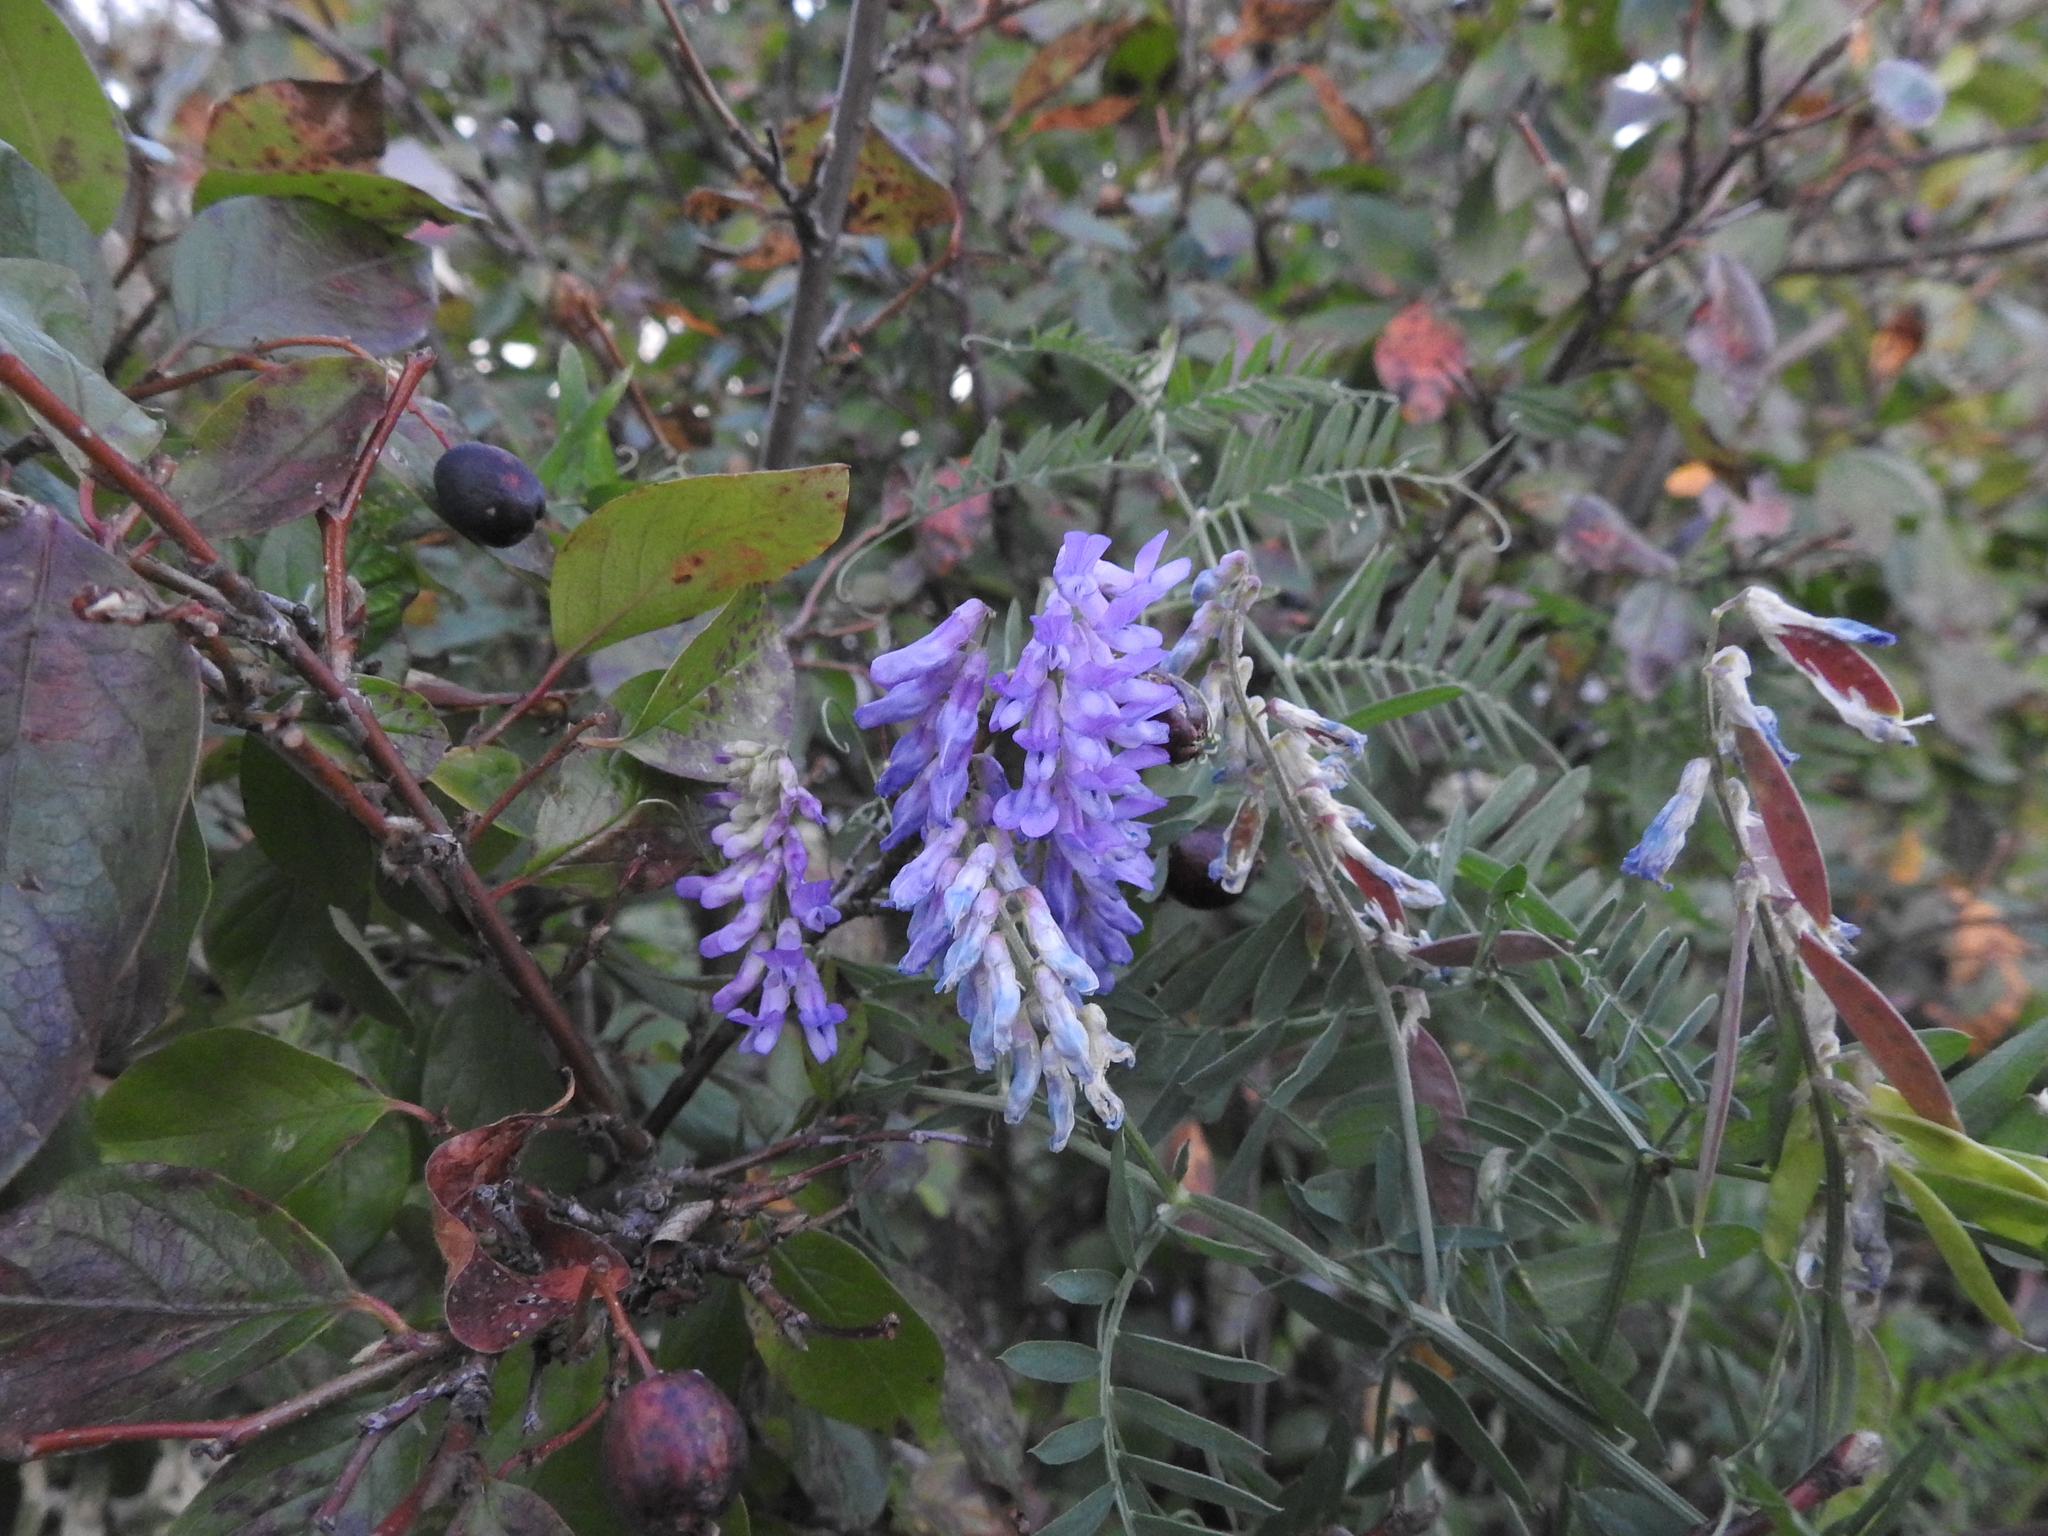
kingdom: Plantae
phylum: Tracheophyta
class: Magnoliopsida
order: Fabales
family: Fabaceae
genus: Vicia
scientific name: Vicia cracca
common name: Bird vetch
